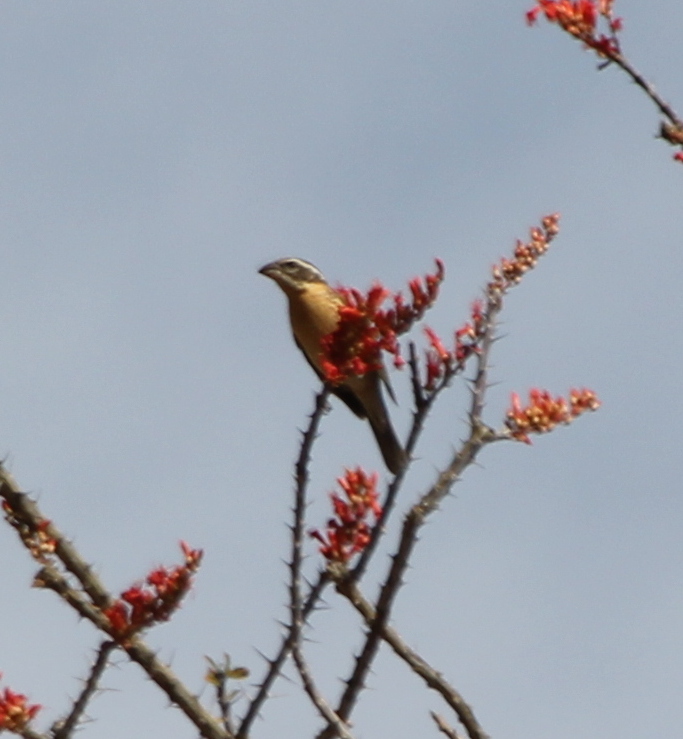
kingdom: Animalia
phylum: Chordata
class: Aves
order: Passeriformes
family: Cardinalidae
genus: Pheucticus
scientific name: Pheucticus melanocephalus
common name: Black-headed grosbeak
